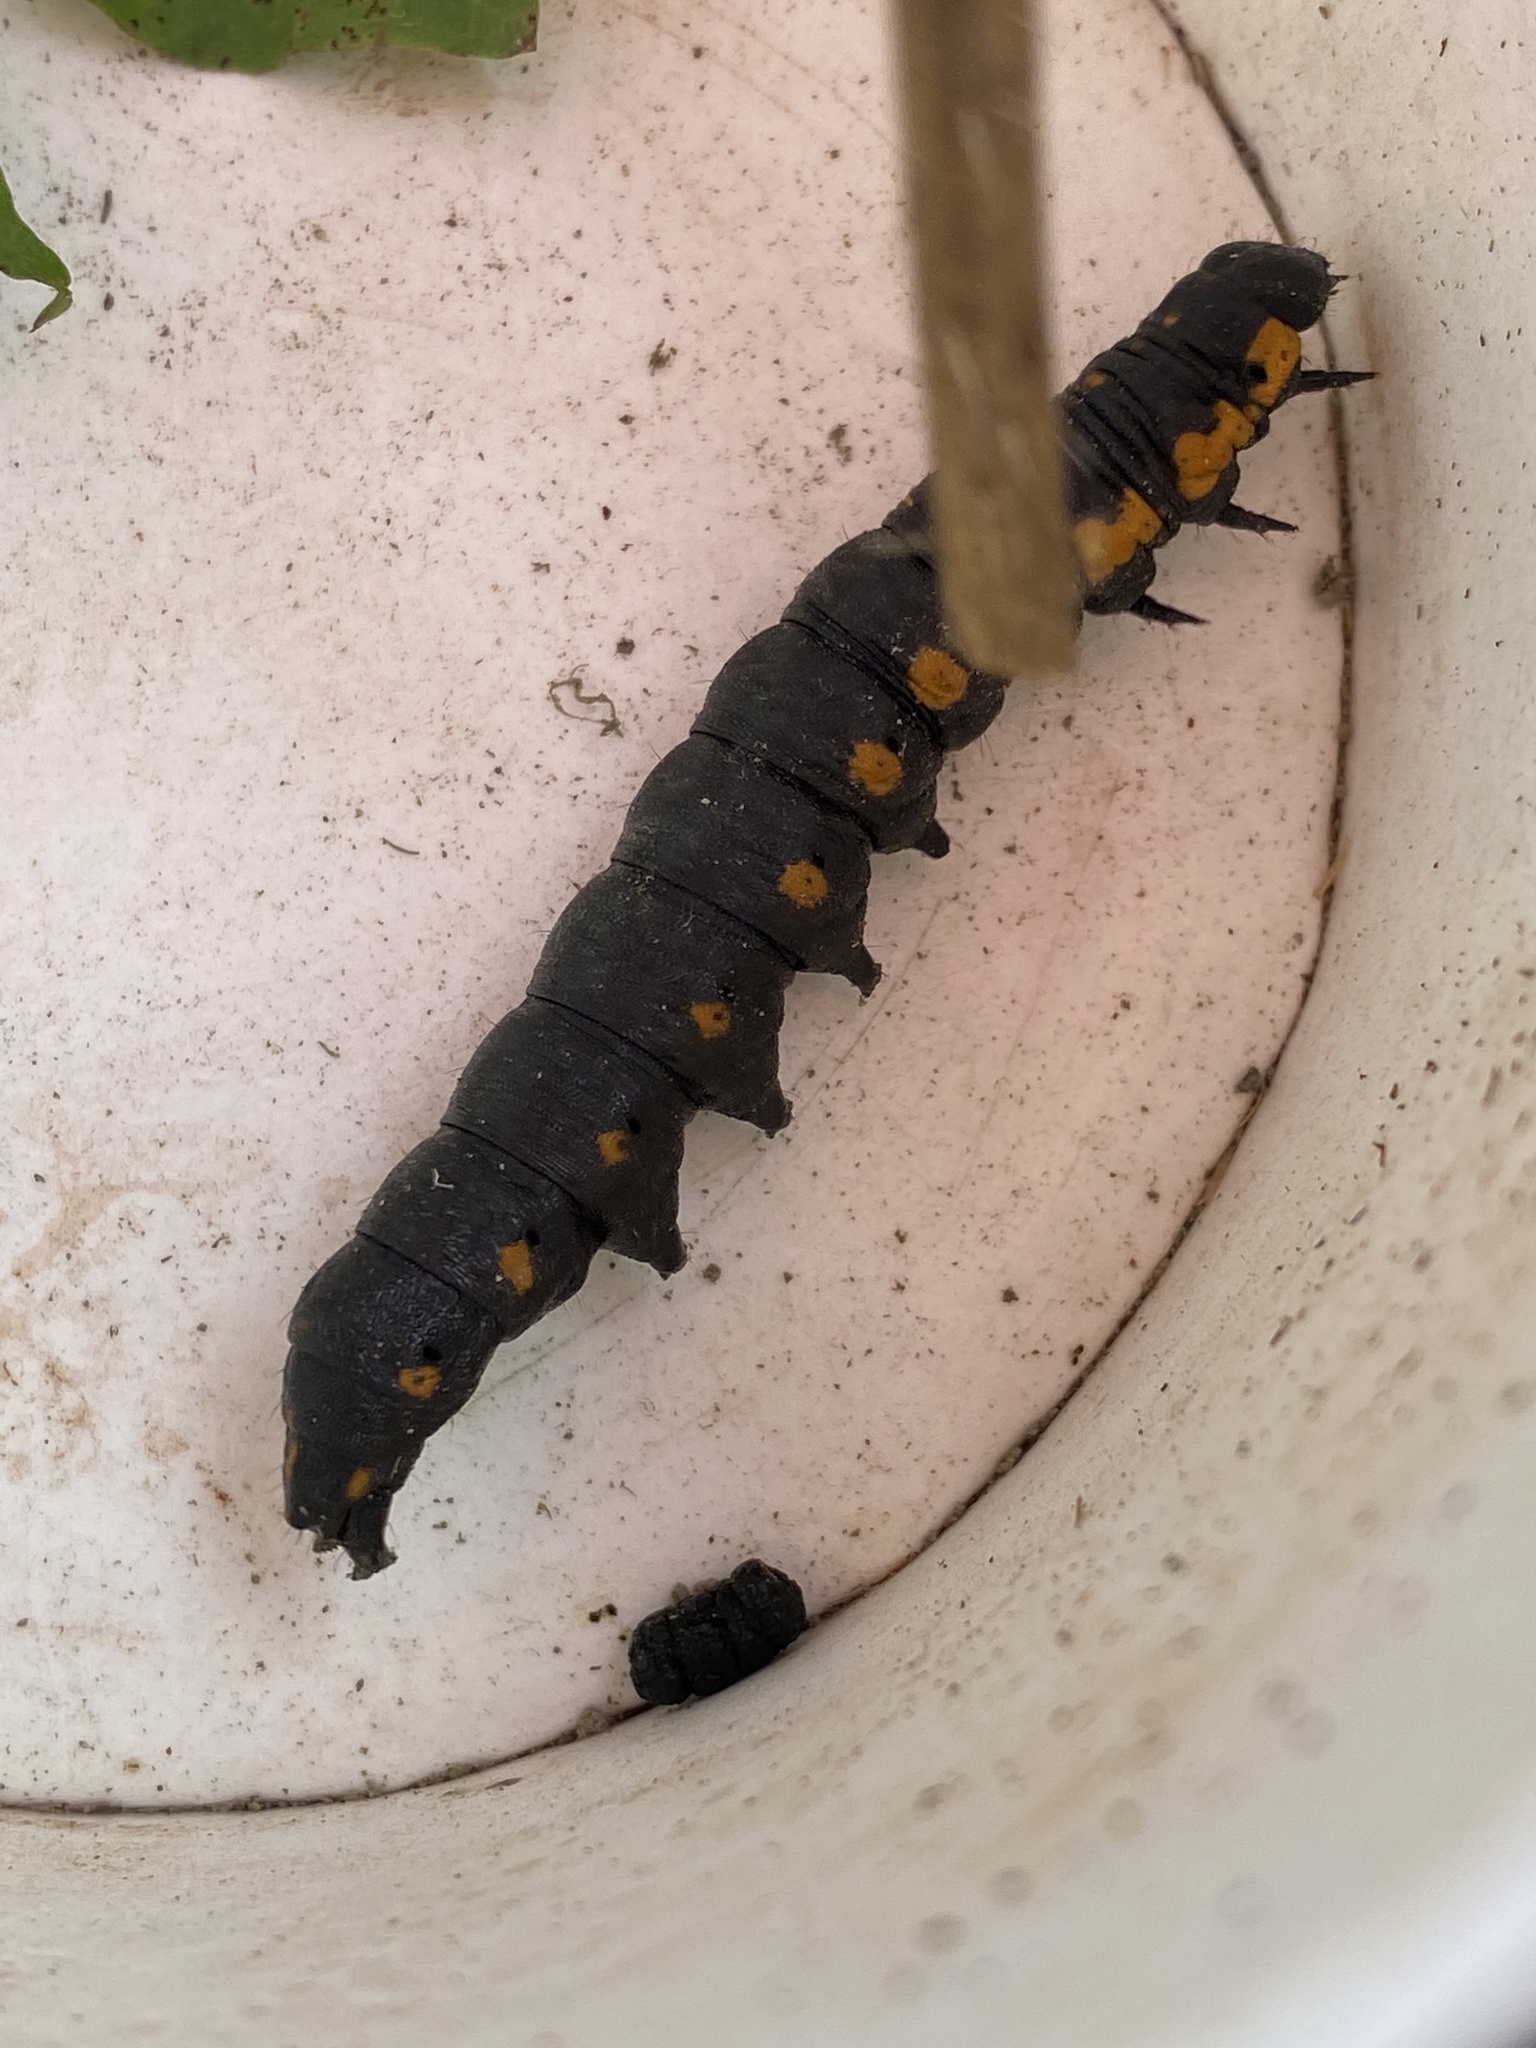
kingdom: Animalia
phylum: Arthropoda
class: Insecta
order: Lepidoptera
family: Noctuidae
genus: Cucullia
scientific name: Cucullia intermedia
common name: Goldenrod cutworm
